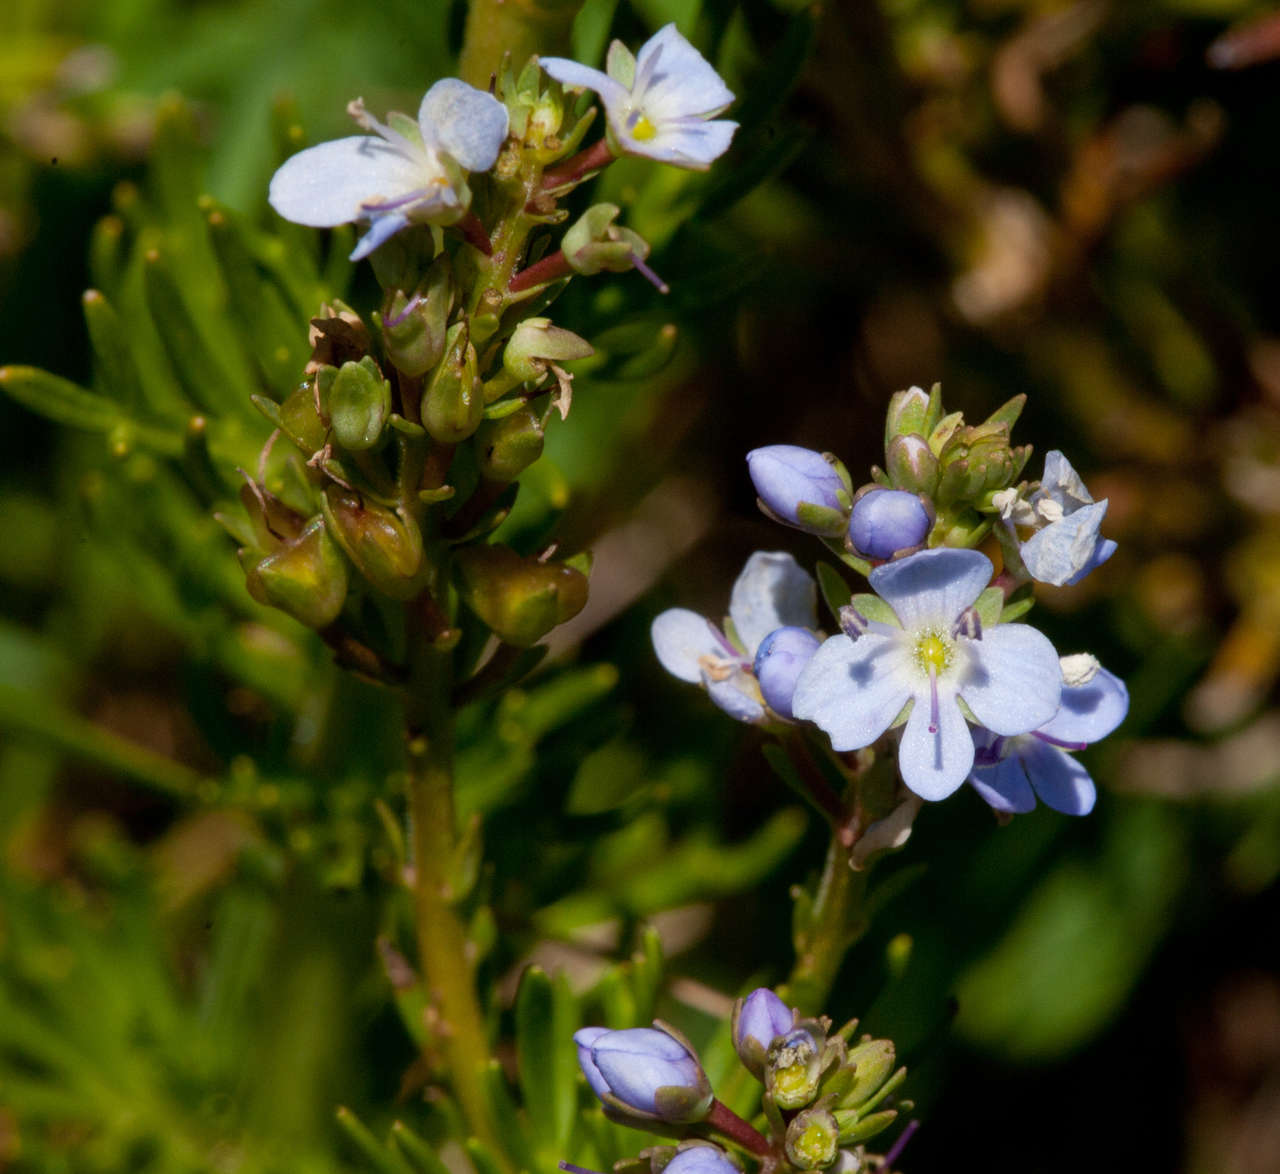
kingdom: Plantae
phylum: Tracheophyta
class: Magnoliopsida
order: Lamiales
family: Plantaginaceae
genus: Veronica
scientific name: Veronica nivea
